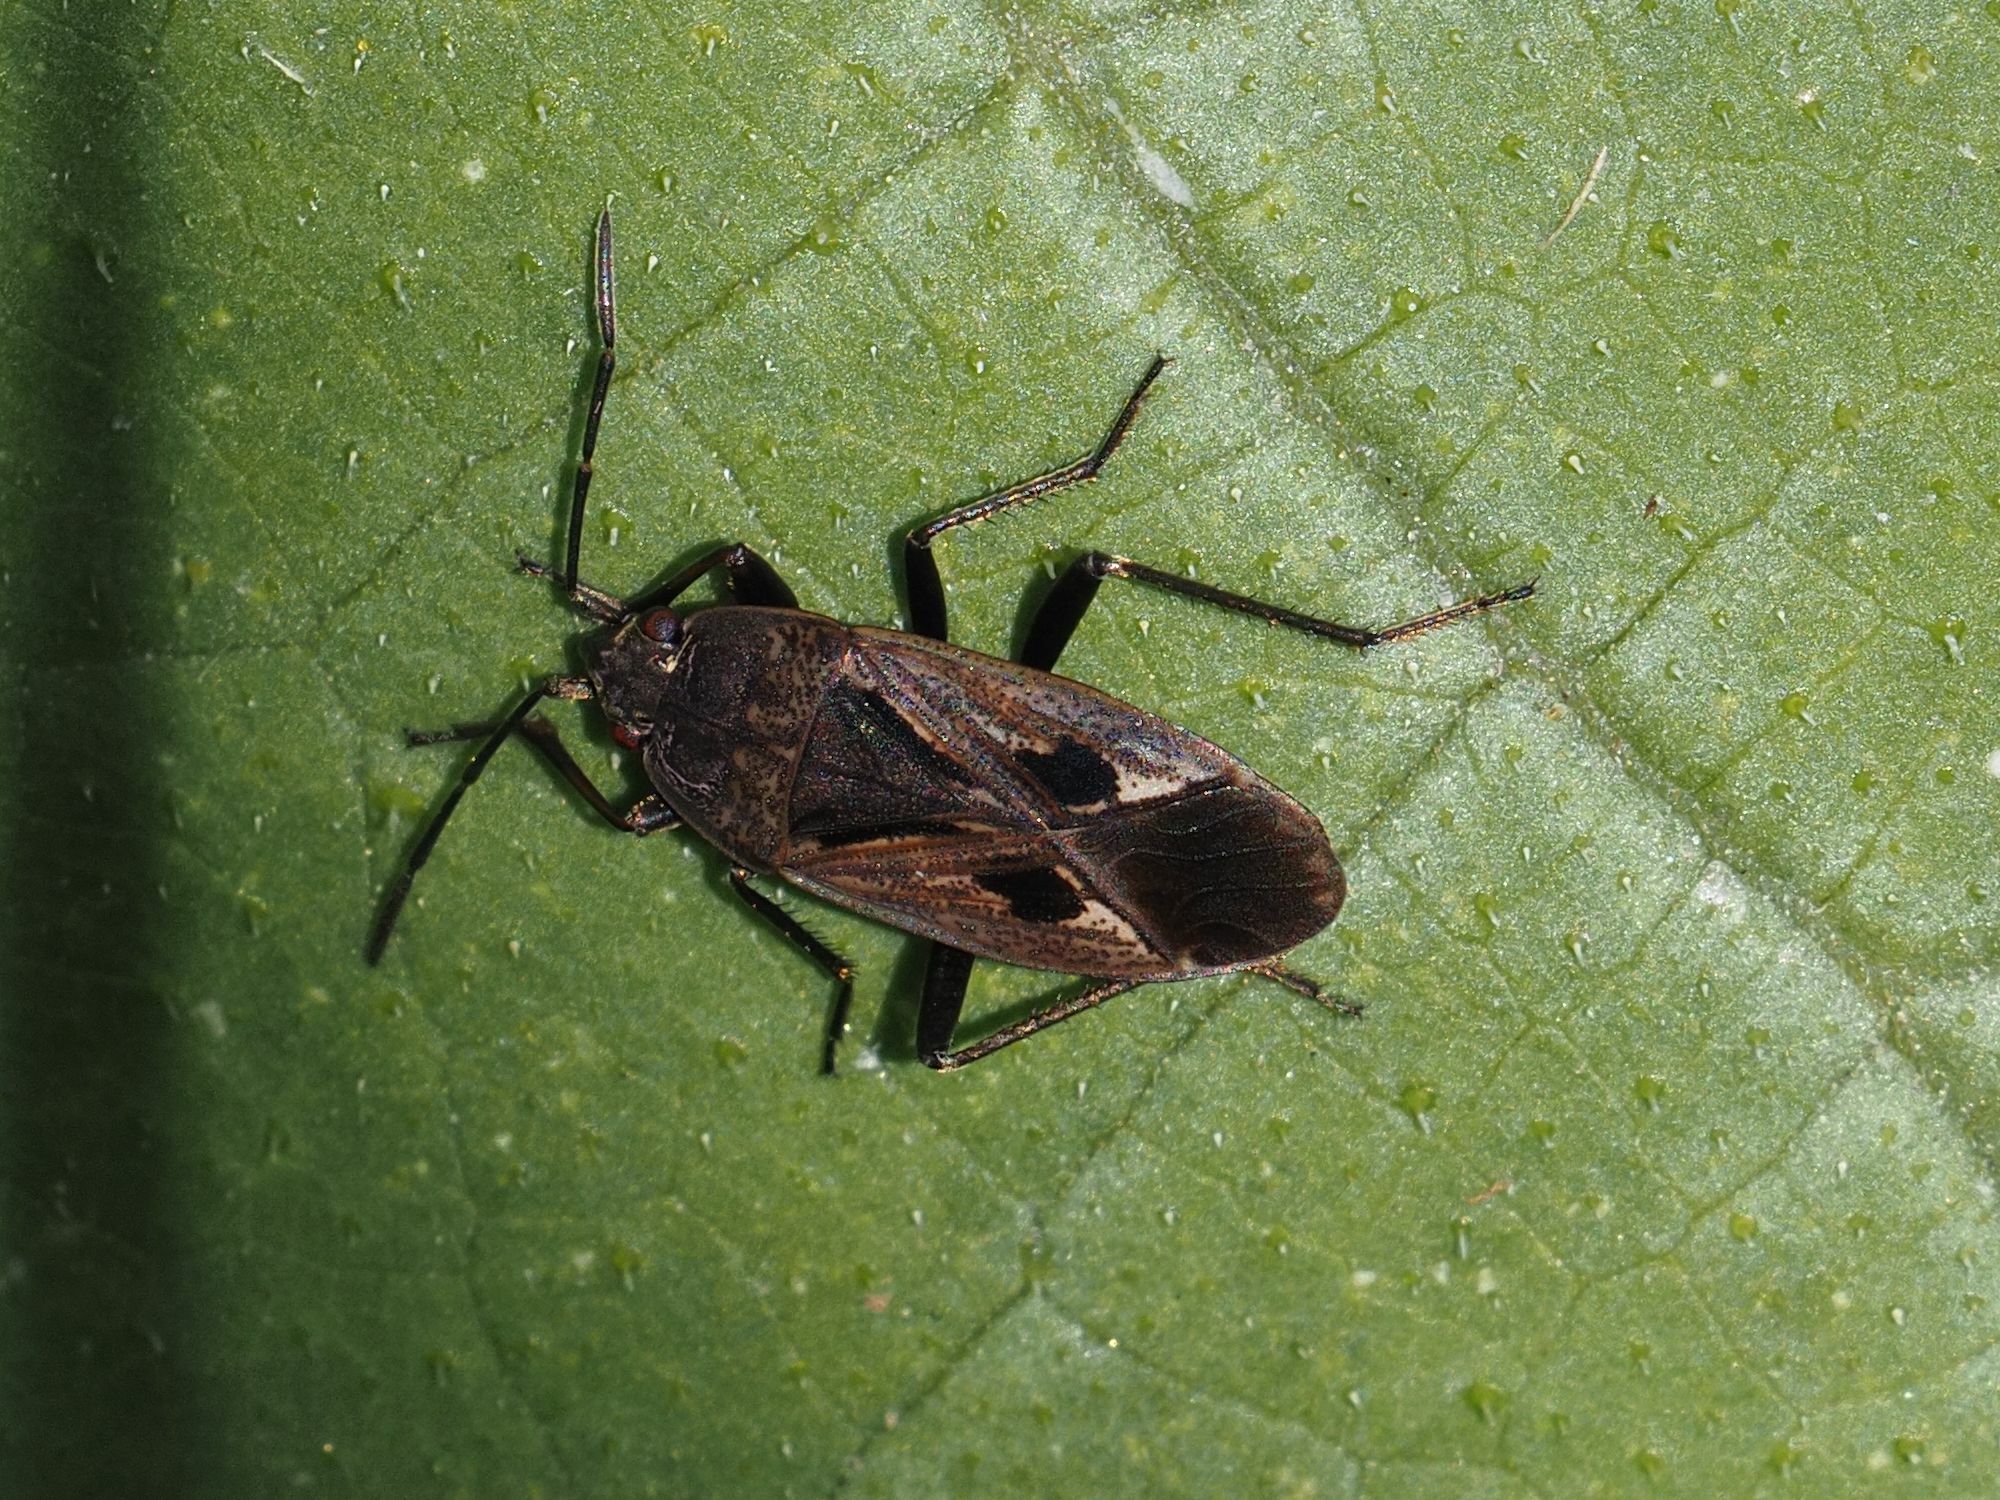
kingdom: Animalia
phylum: Arthropoda
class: Insecta
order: Hemiptera
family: Rhyparochromidae
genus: Rhyparochromus
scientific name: Rhyparochromus pini
